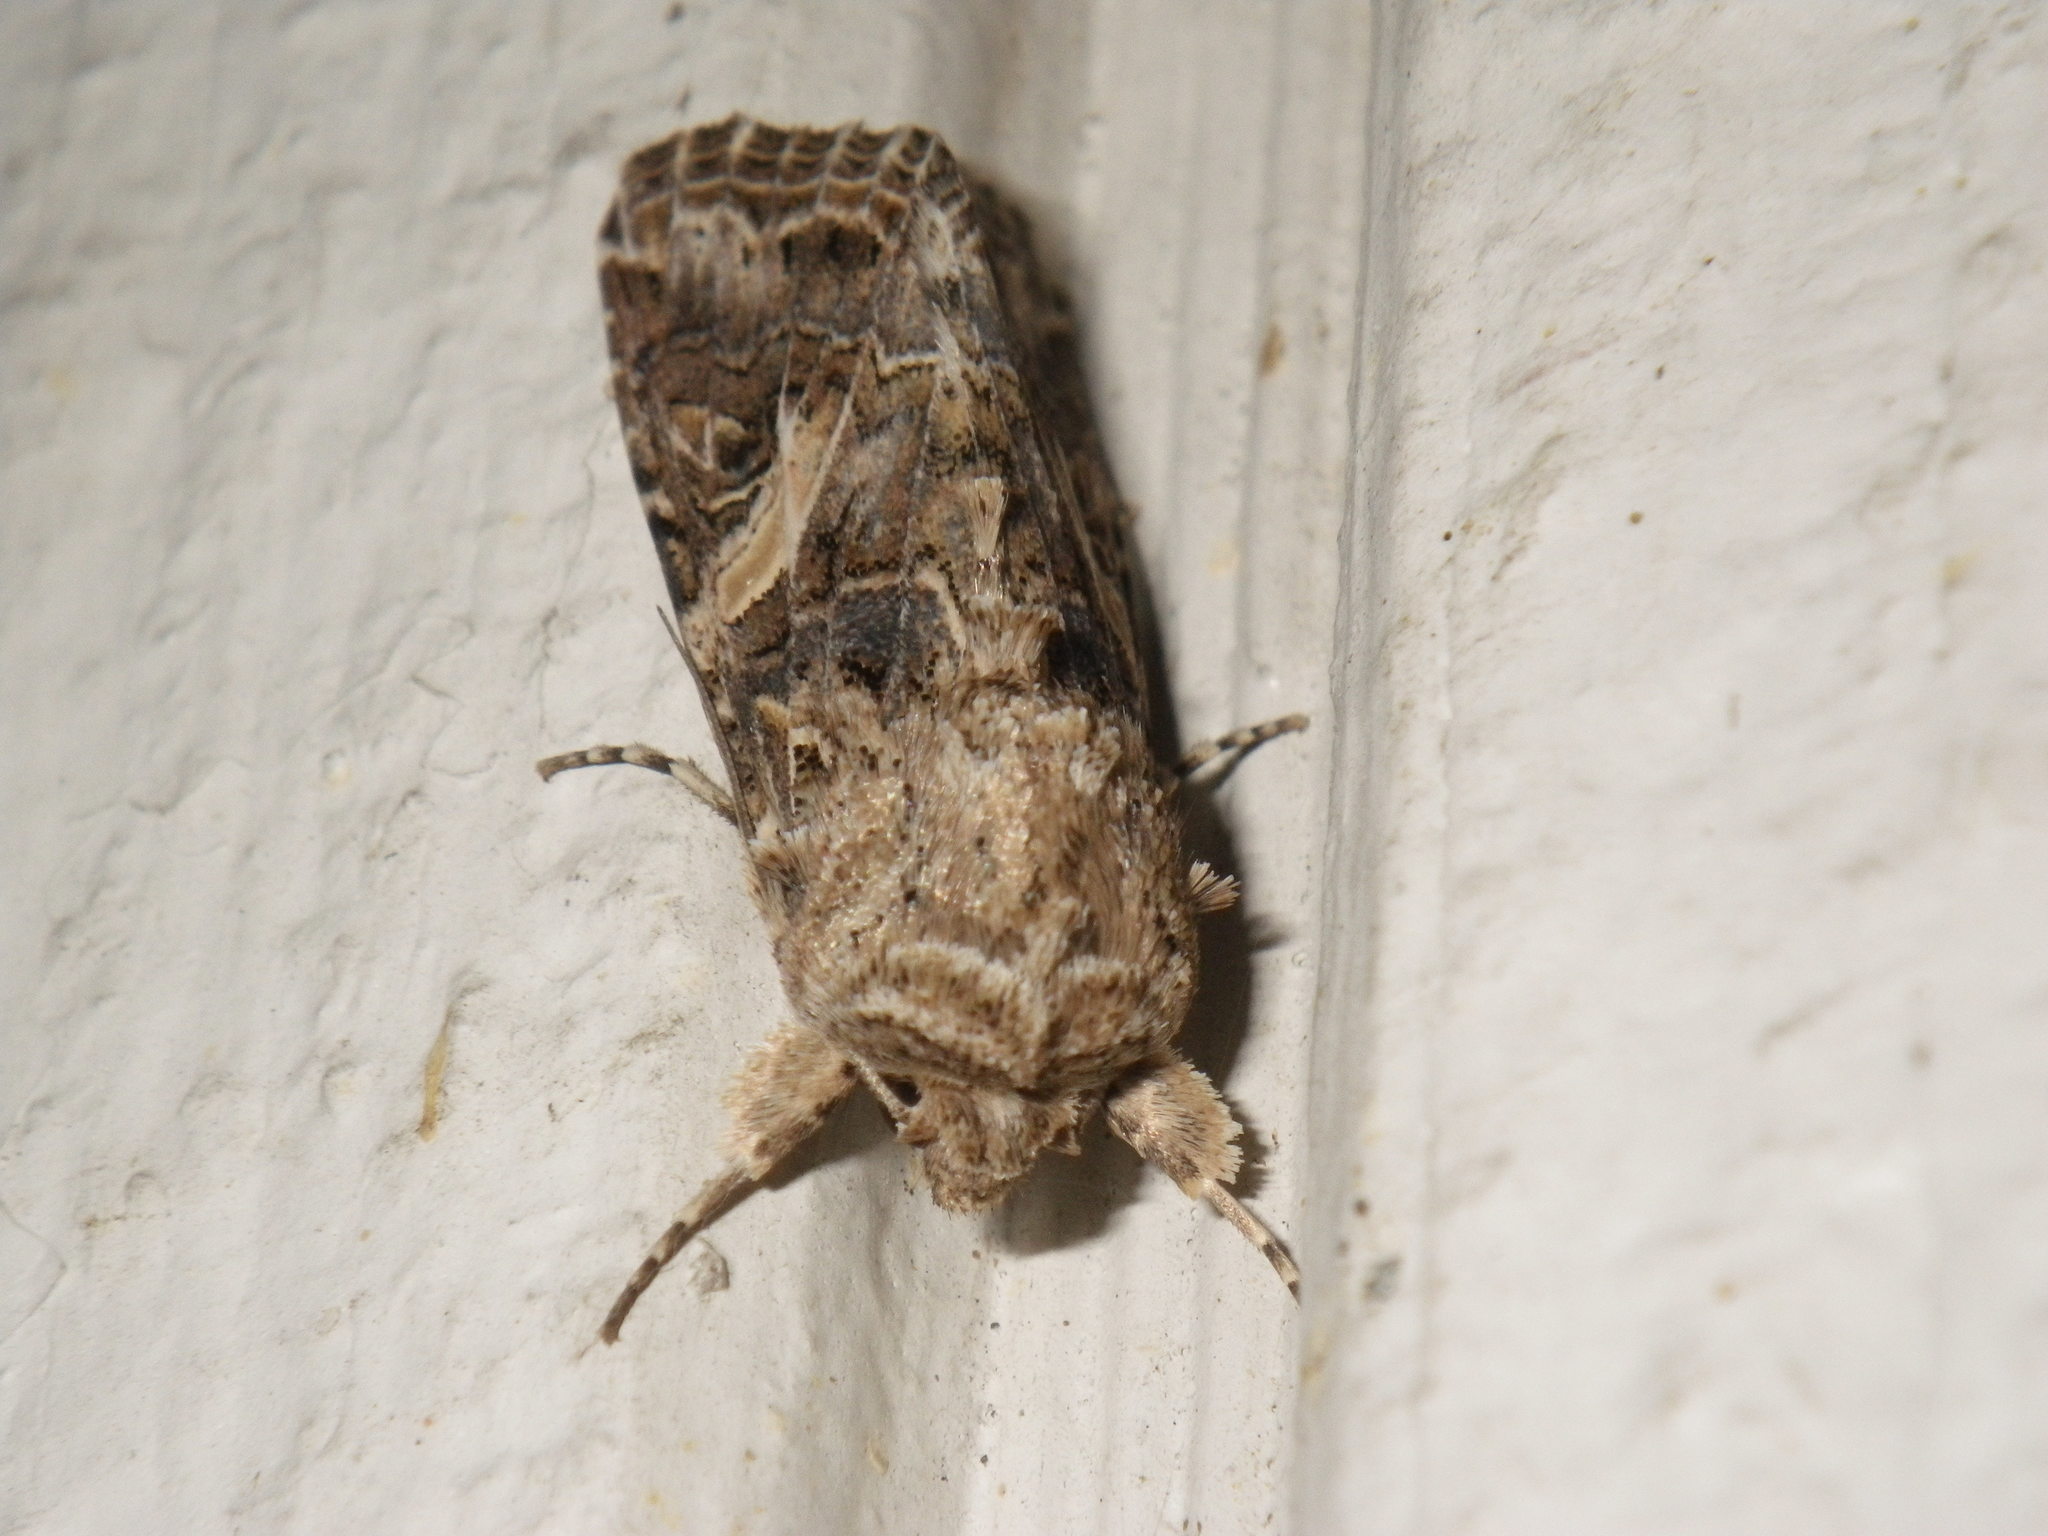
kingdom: Animalia
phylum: Arthropoda
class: Insecta
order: Lepidoptera
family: Noctuidae
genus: Spodoptera
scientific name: Spodoptera praefica
